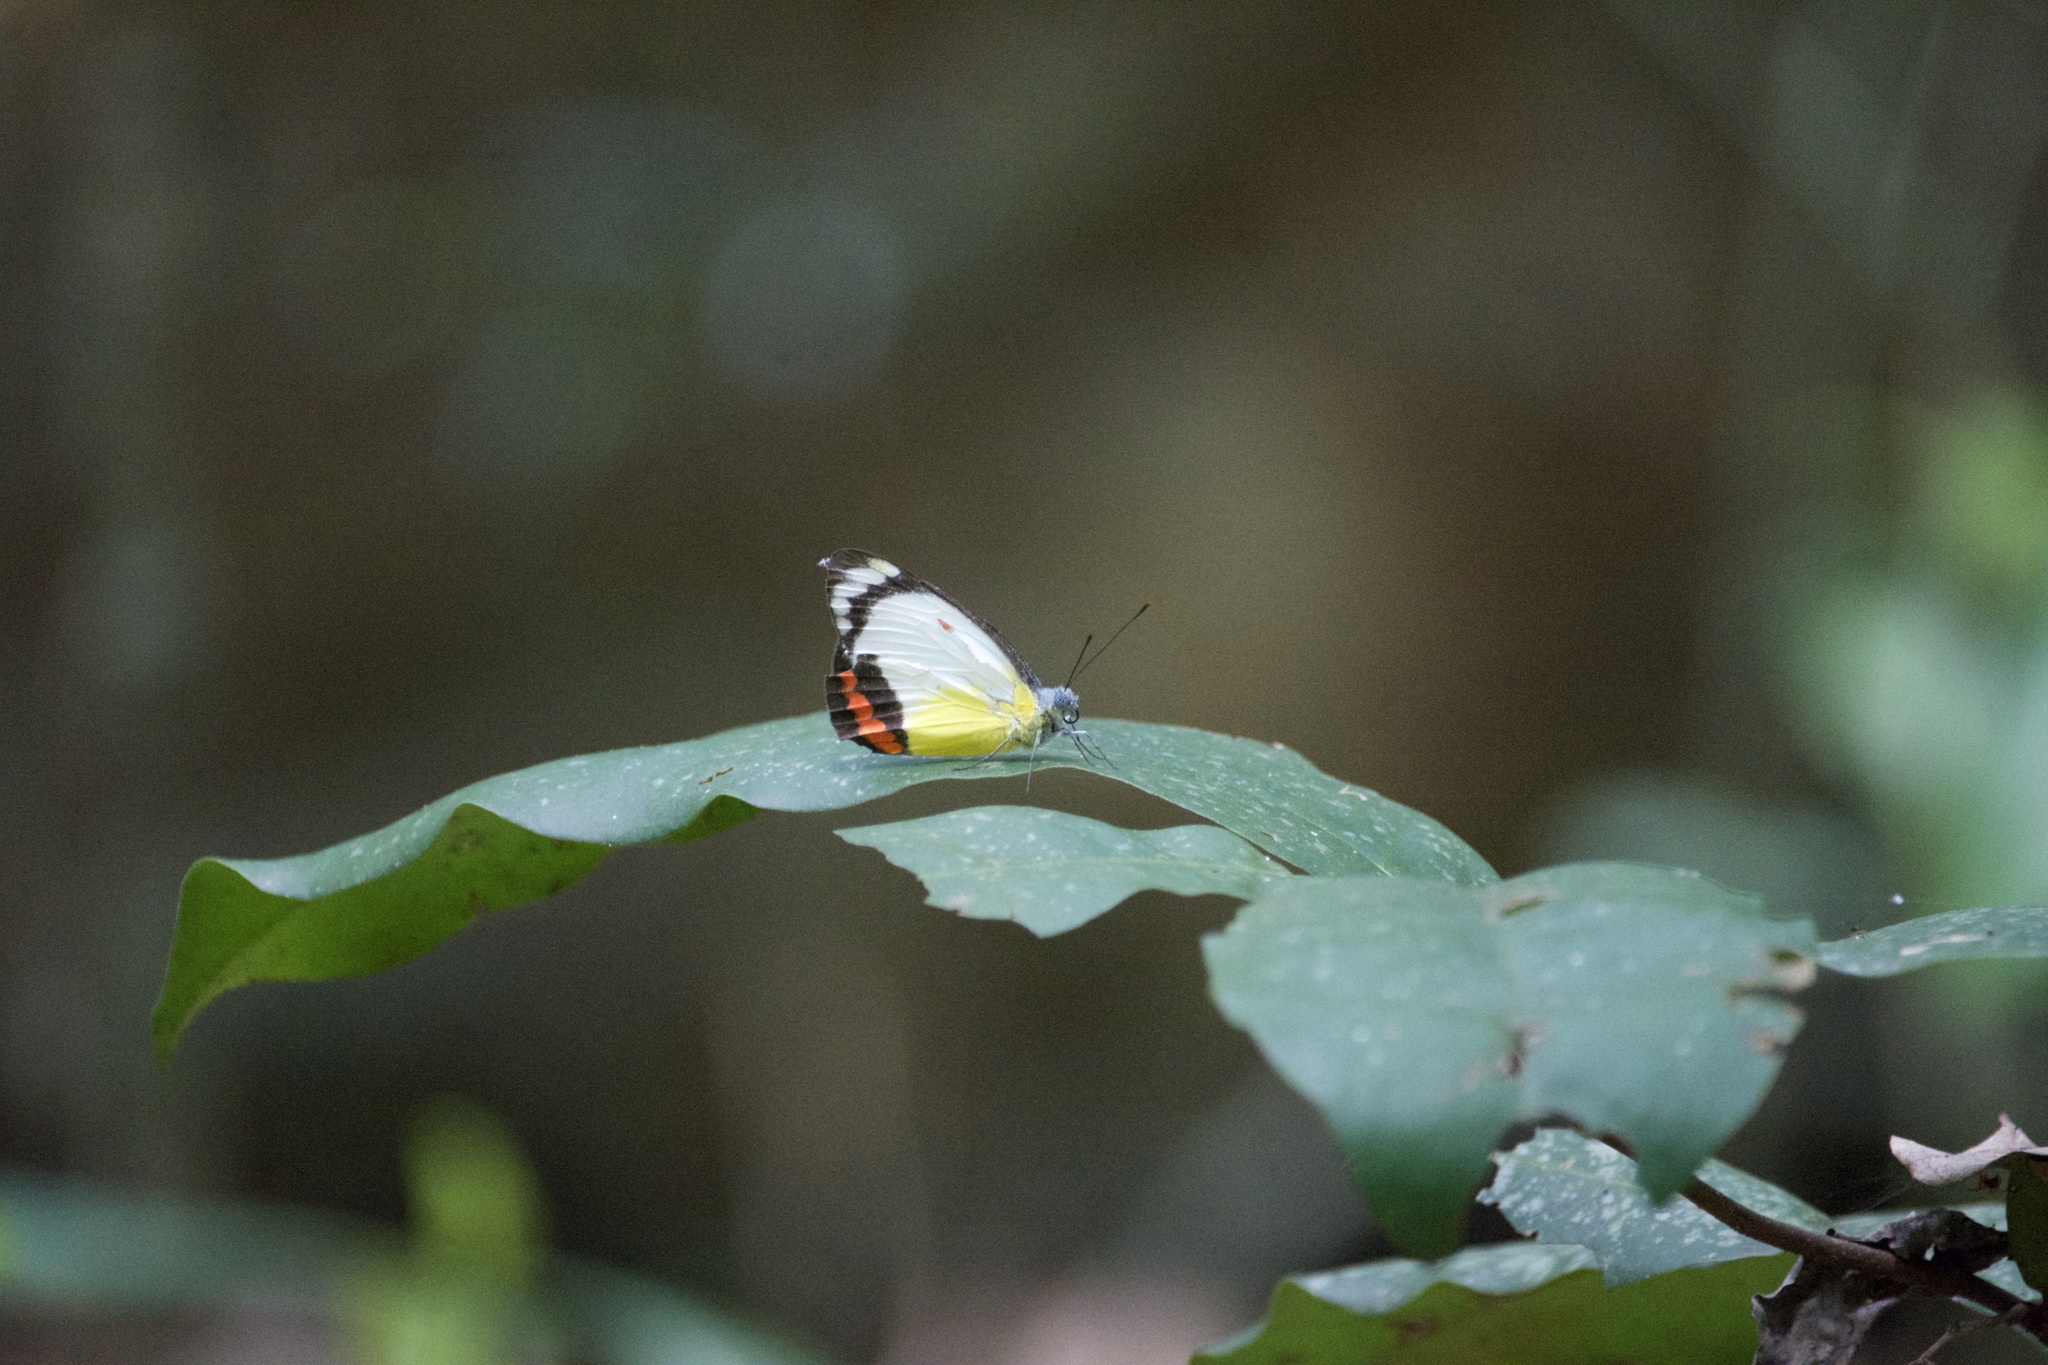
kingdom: Animalia
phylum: Arthropoda
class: Insecta
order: Lepidoptera
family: Pieridae
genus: Delias
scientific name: Delias mysis
